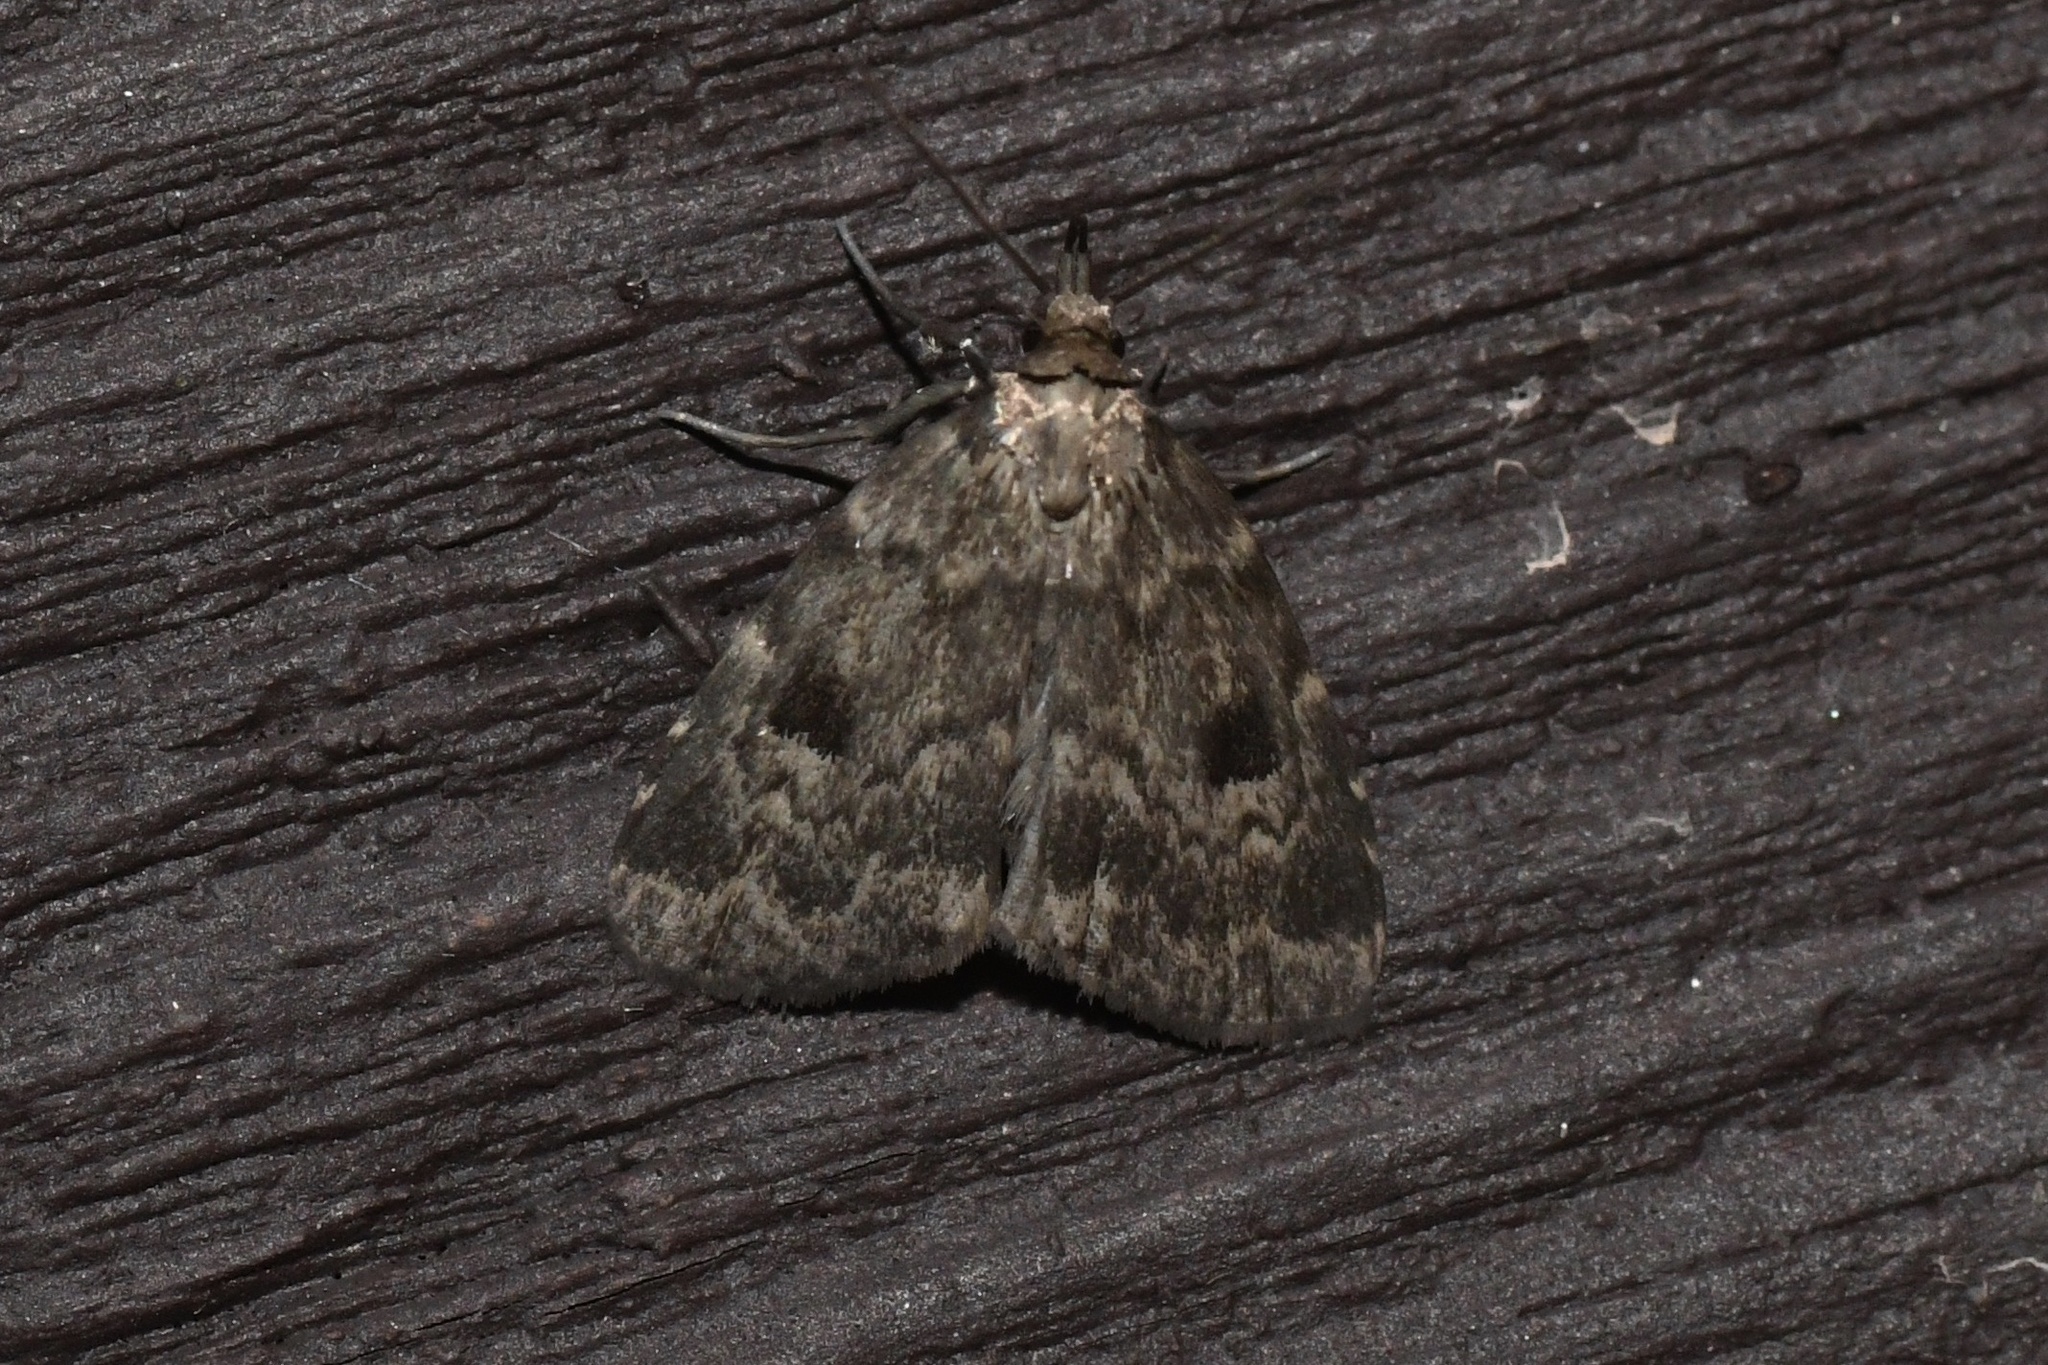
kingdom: Animalia
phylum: Arthropoda
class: Insecta
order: Lepidoptera
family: Erebidae
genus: Paradelta
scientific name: Paradelta Parahypenodes quadralis
